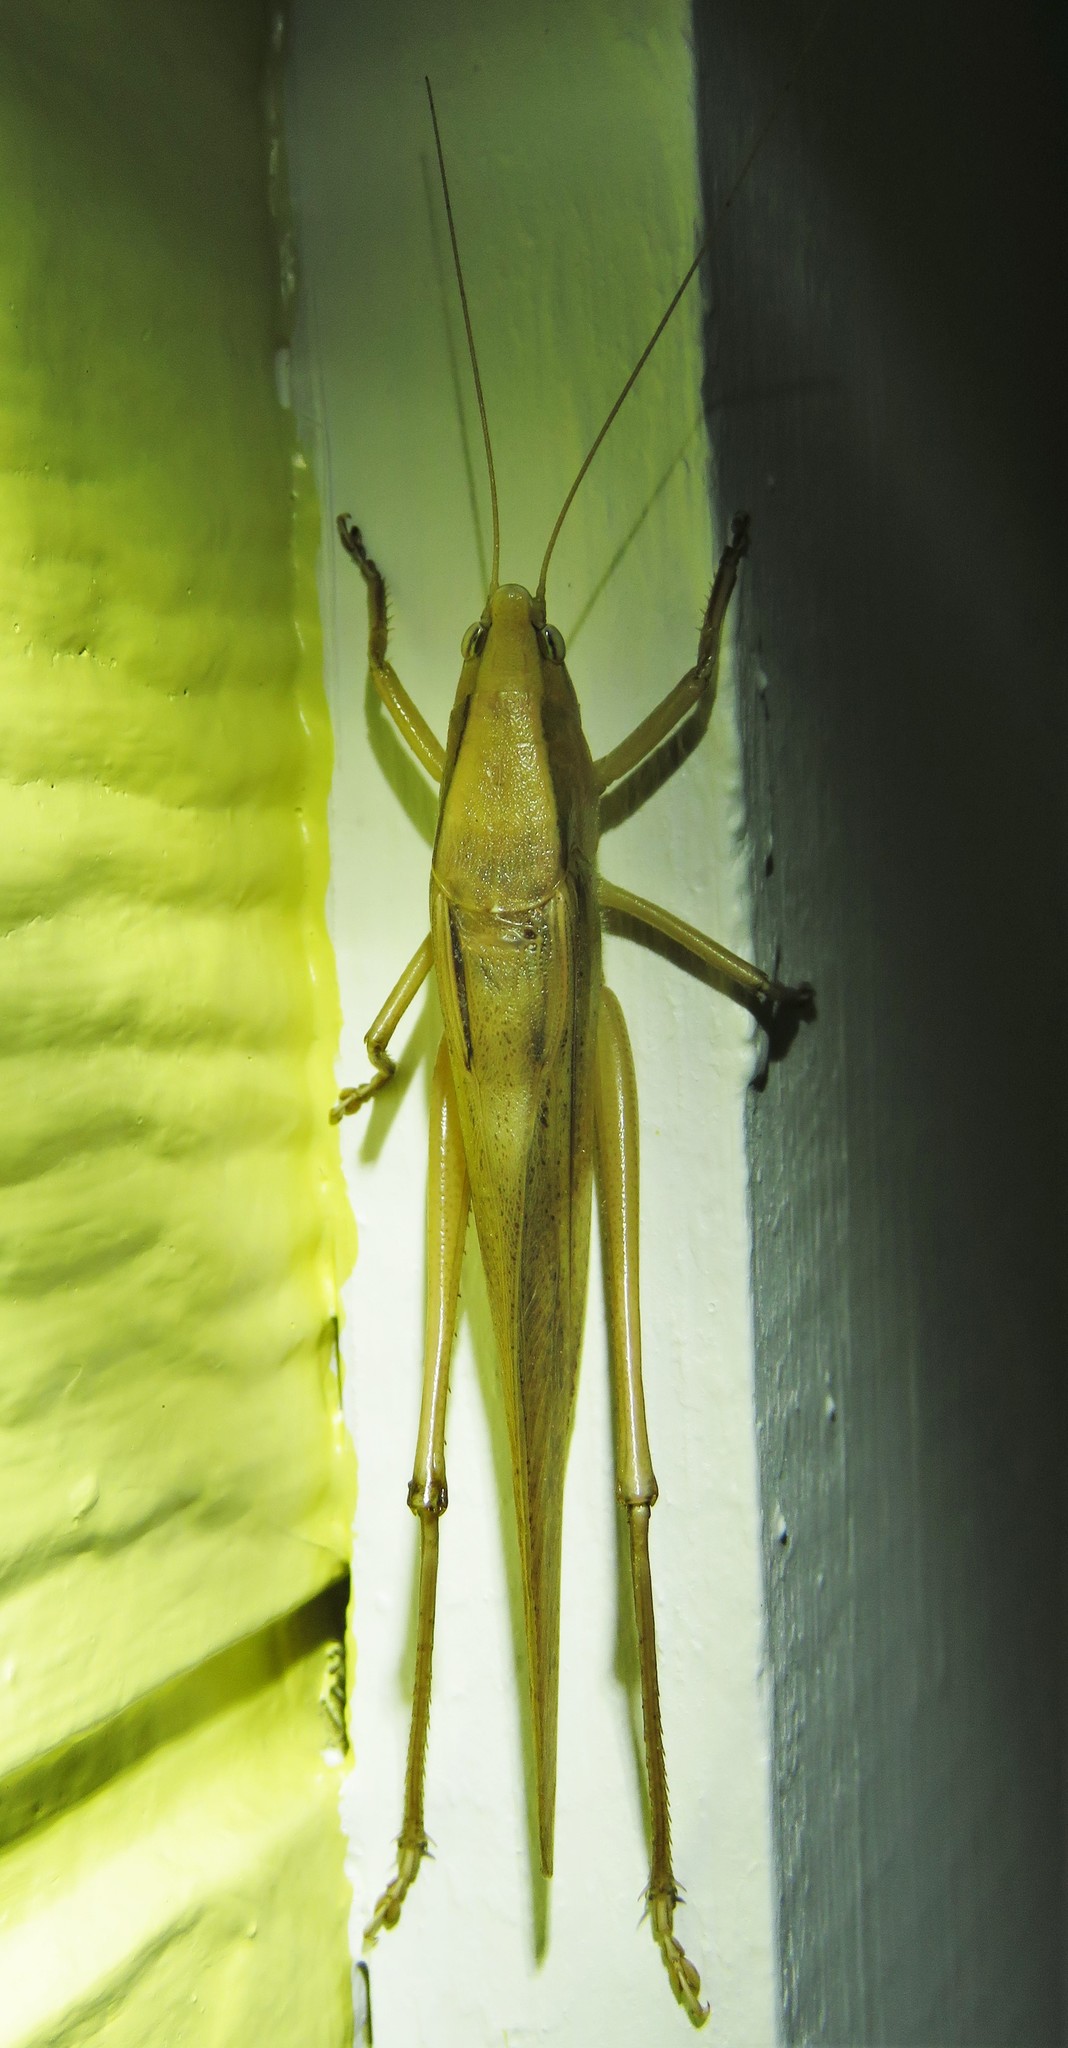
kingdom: Animalia
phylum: Arthropoda
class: Insecta
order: Orthoptera
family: Tettigoniidae
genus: Neoconocephalus
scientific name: Neoconocephalus triops
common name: Broad-tipped conehead
